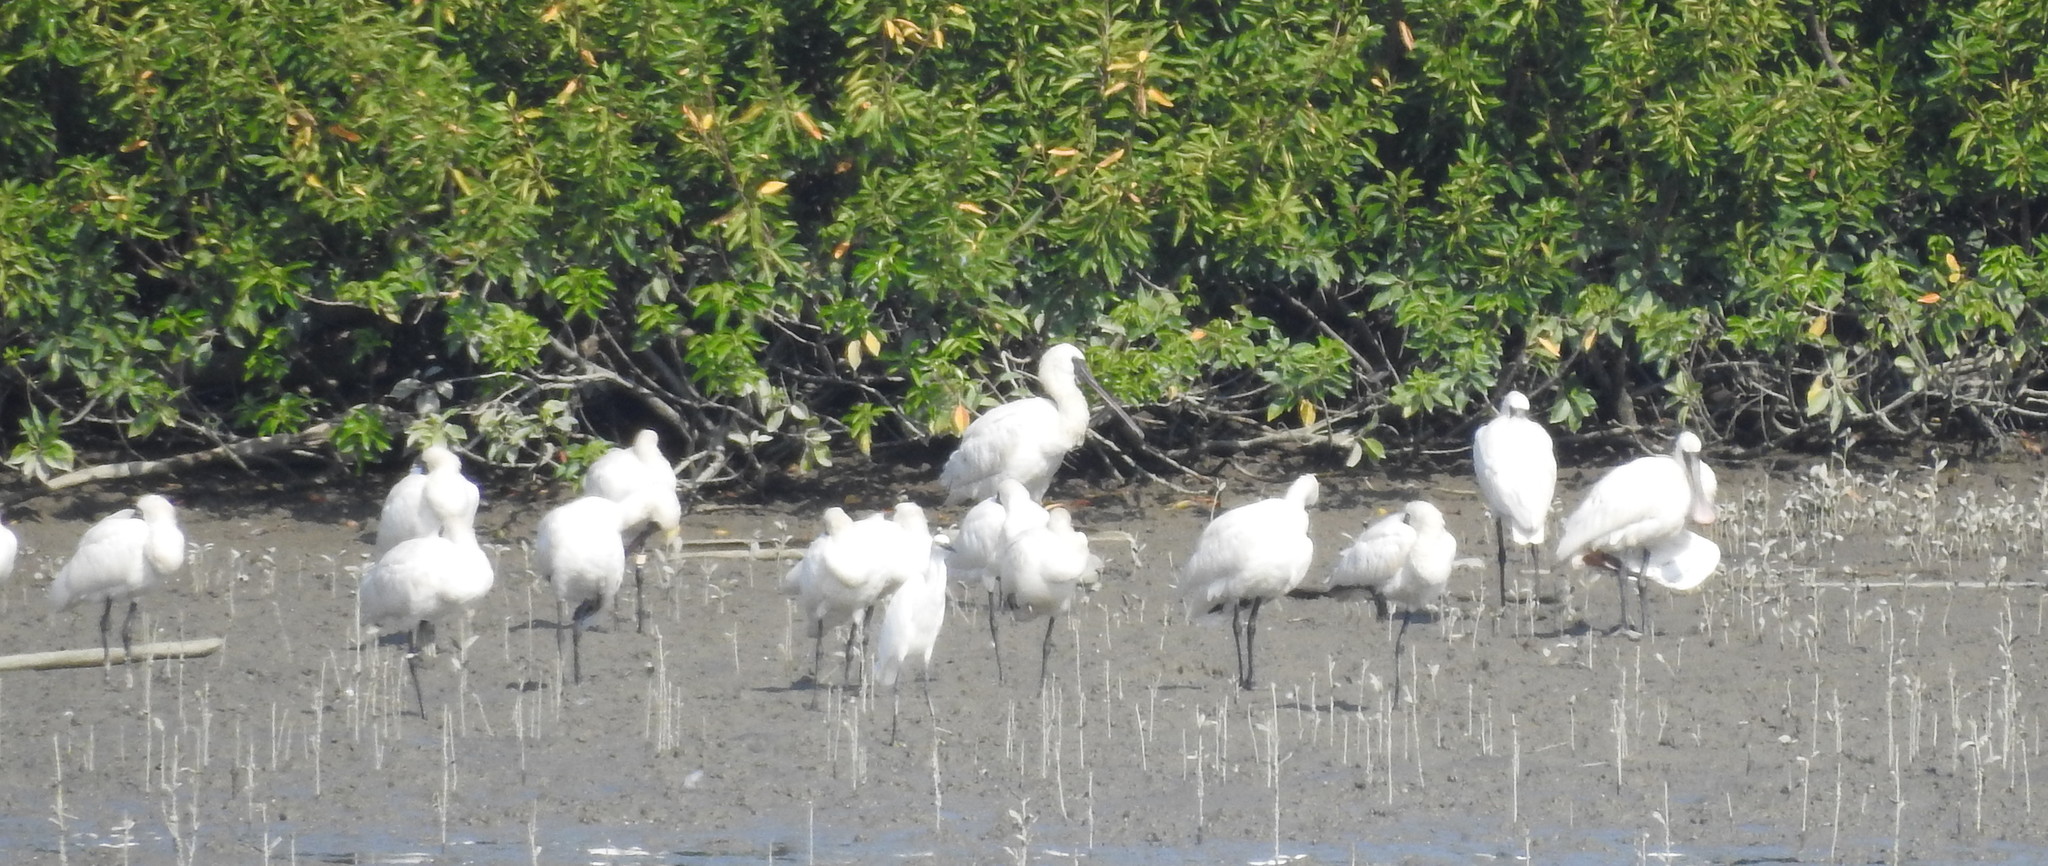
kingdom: Animalia
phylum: Chordata
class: Aves
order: Pelecaniformes
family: Threskiornithidae
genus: Platalea
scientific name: Platalea minor
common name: Black-faced spoonbill
